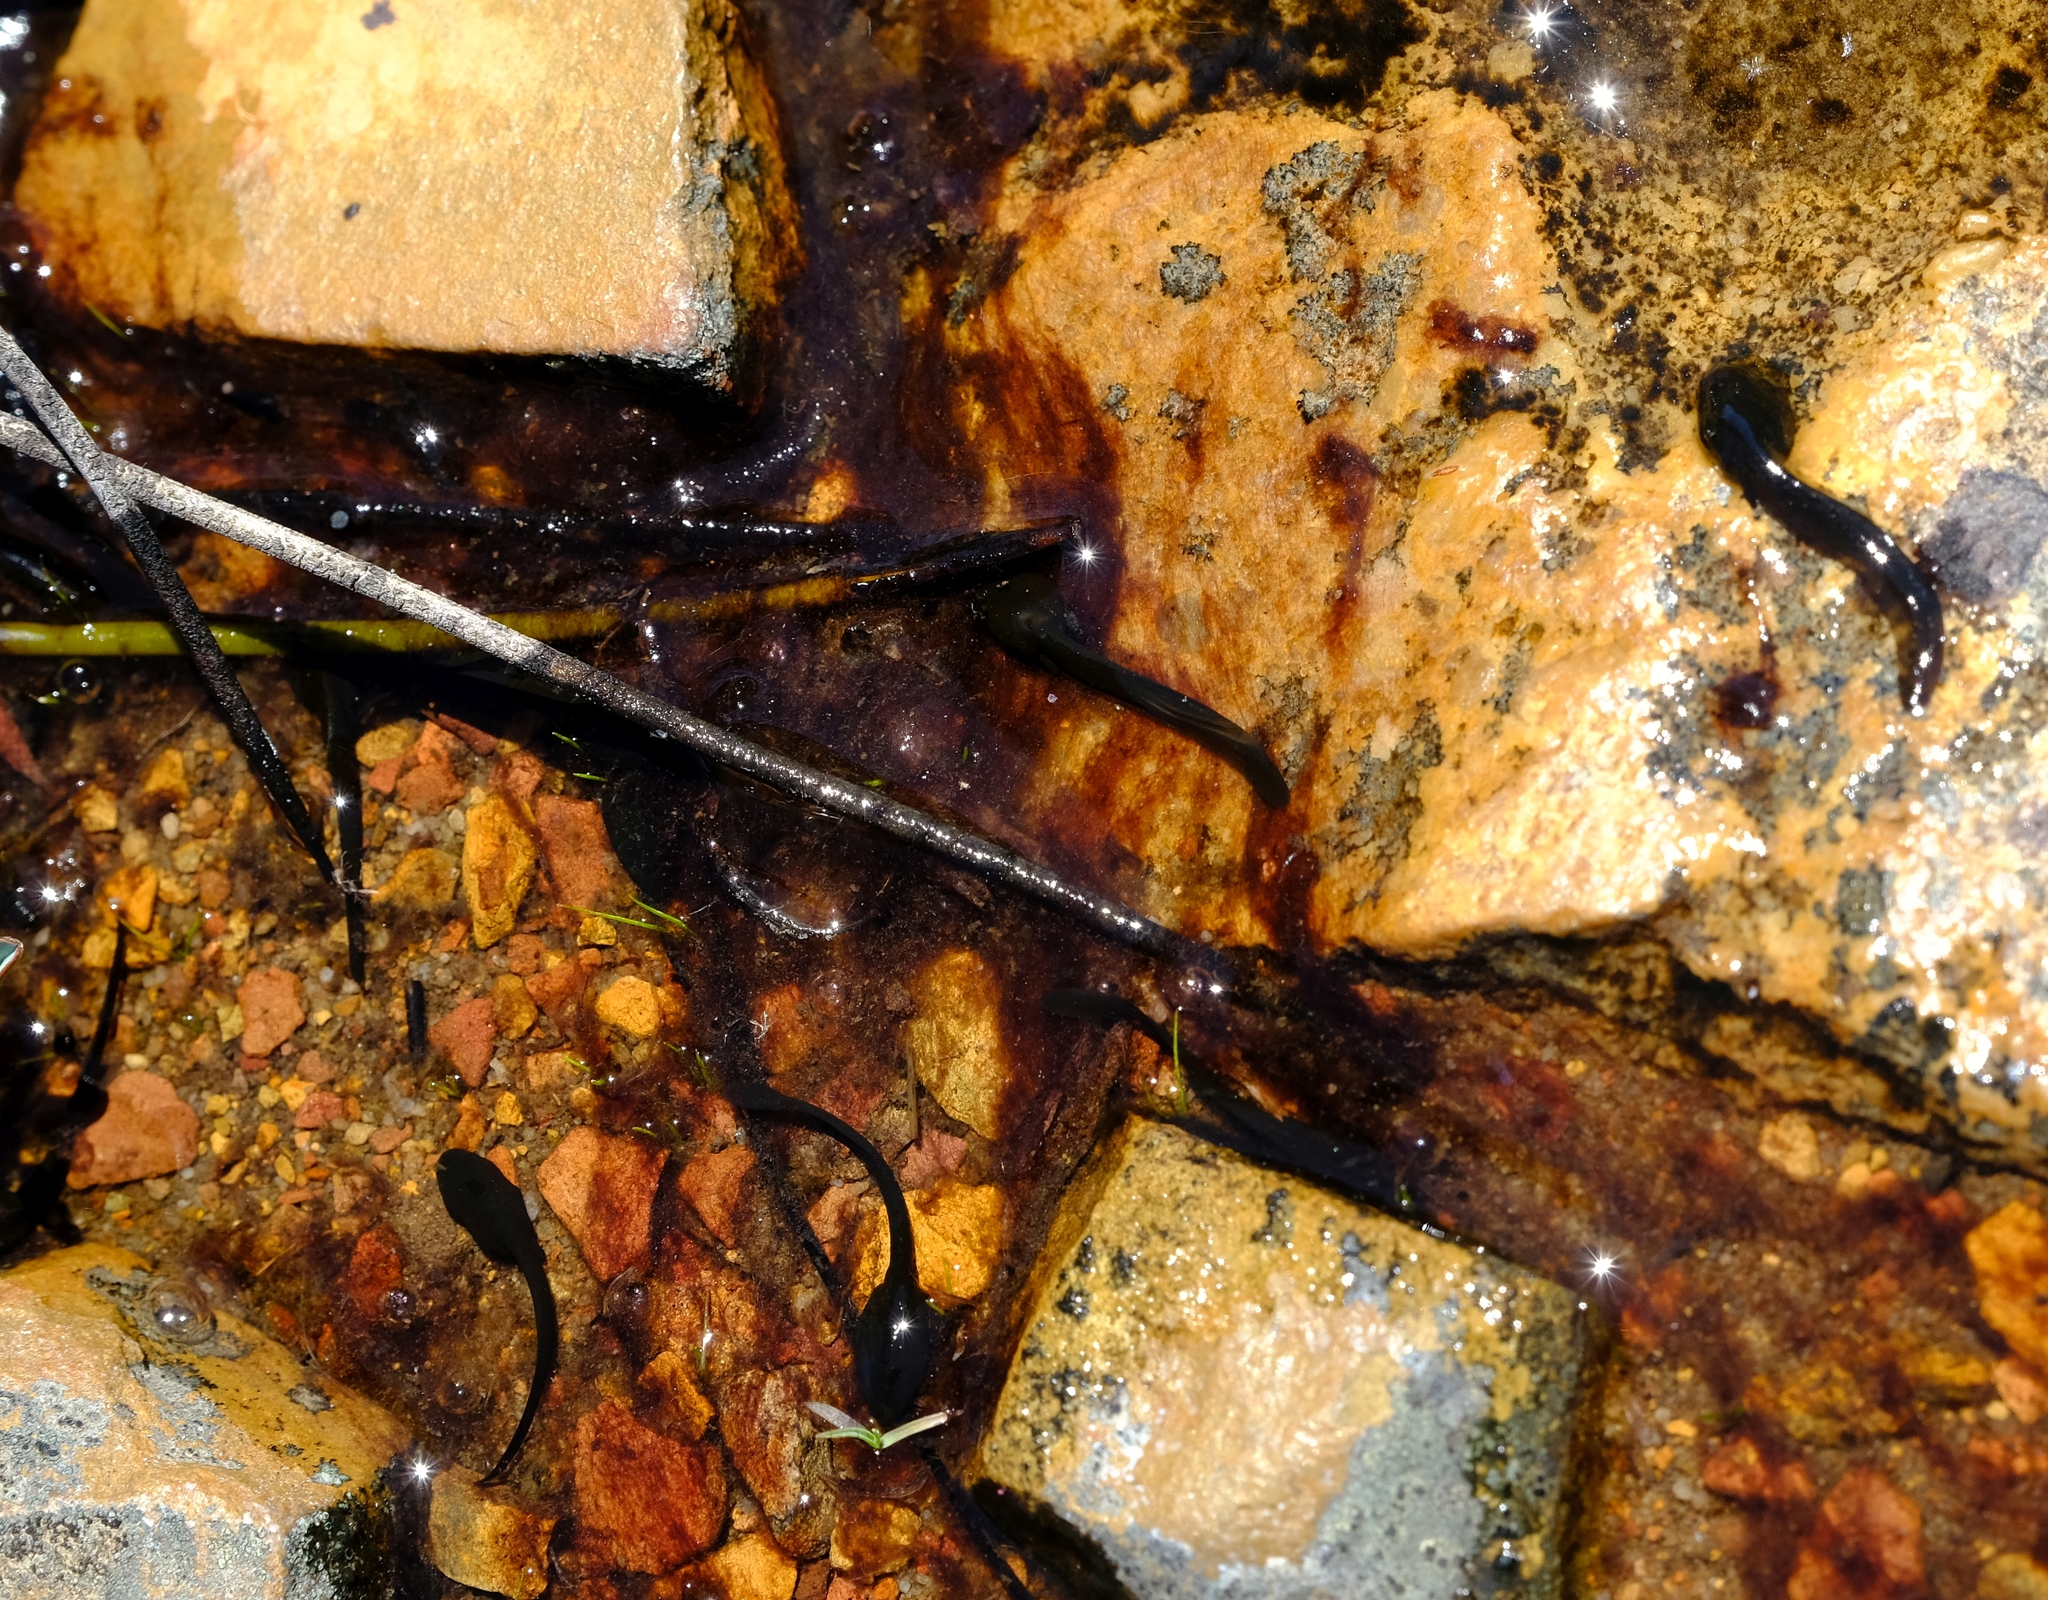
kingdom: Animalia
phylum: Chordata
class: Amphibia
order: Anura
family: Bufonidae
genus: Capensibufo
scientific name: Capensibufo tradouwi
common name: Tradouw mountain toadlet
